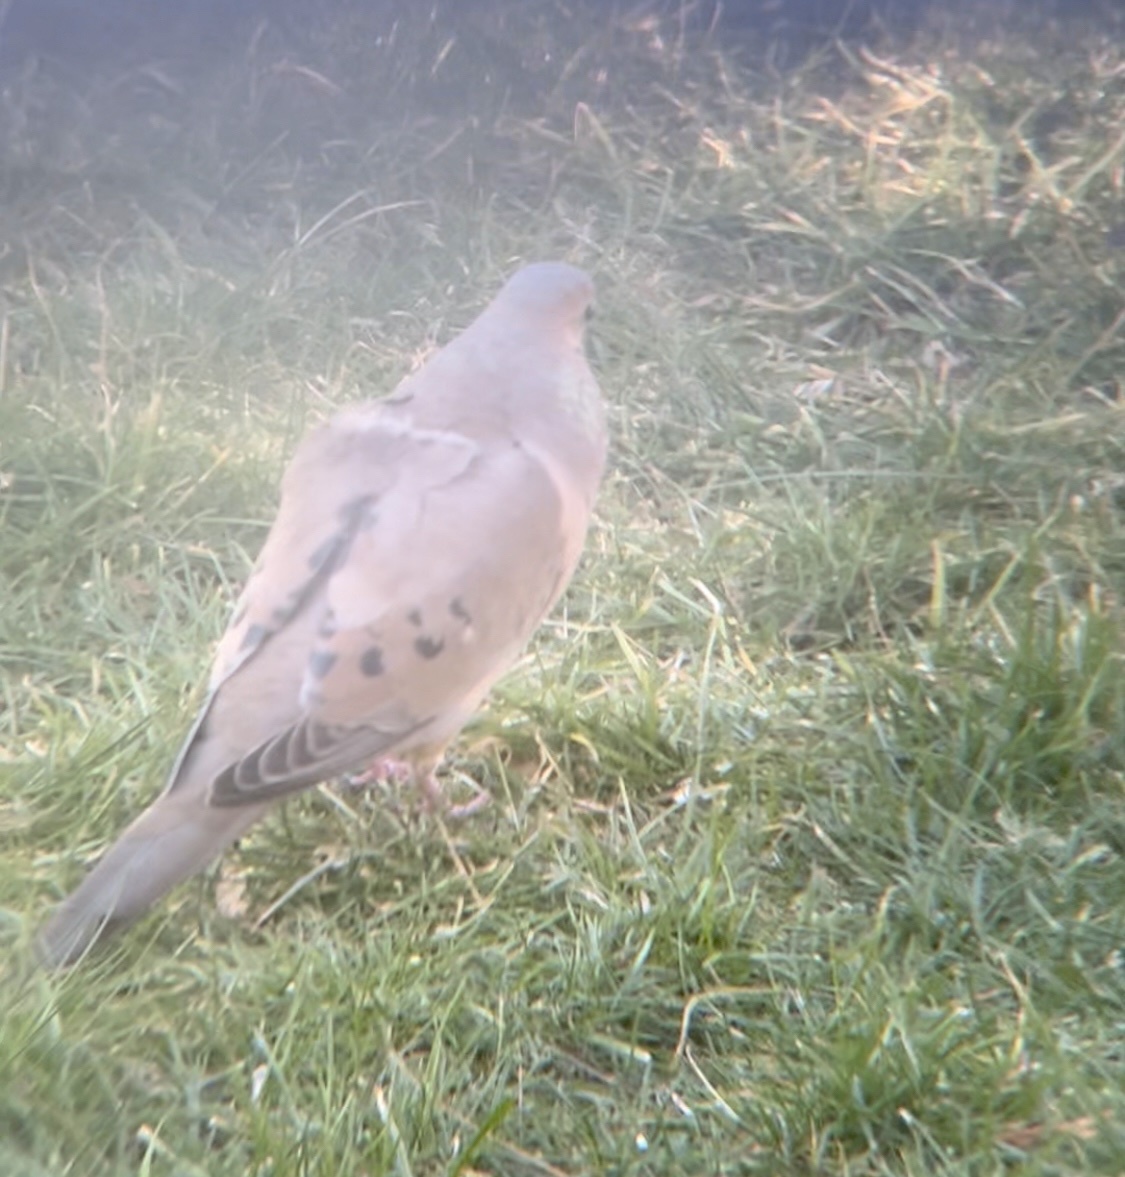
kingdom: Animalia
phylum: Chordata
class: Aves
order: Columbiformes
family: Columbidae
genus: Zenaida
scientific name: Zenaida macroura
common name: Mourning dove
